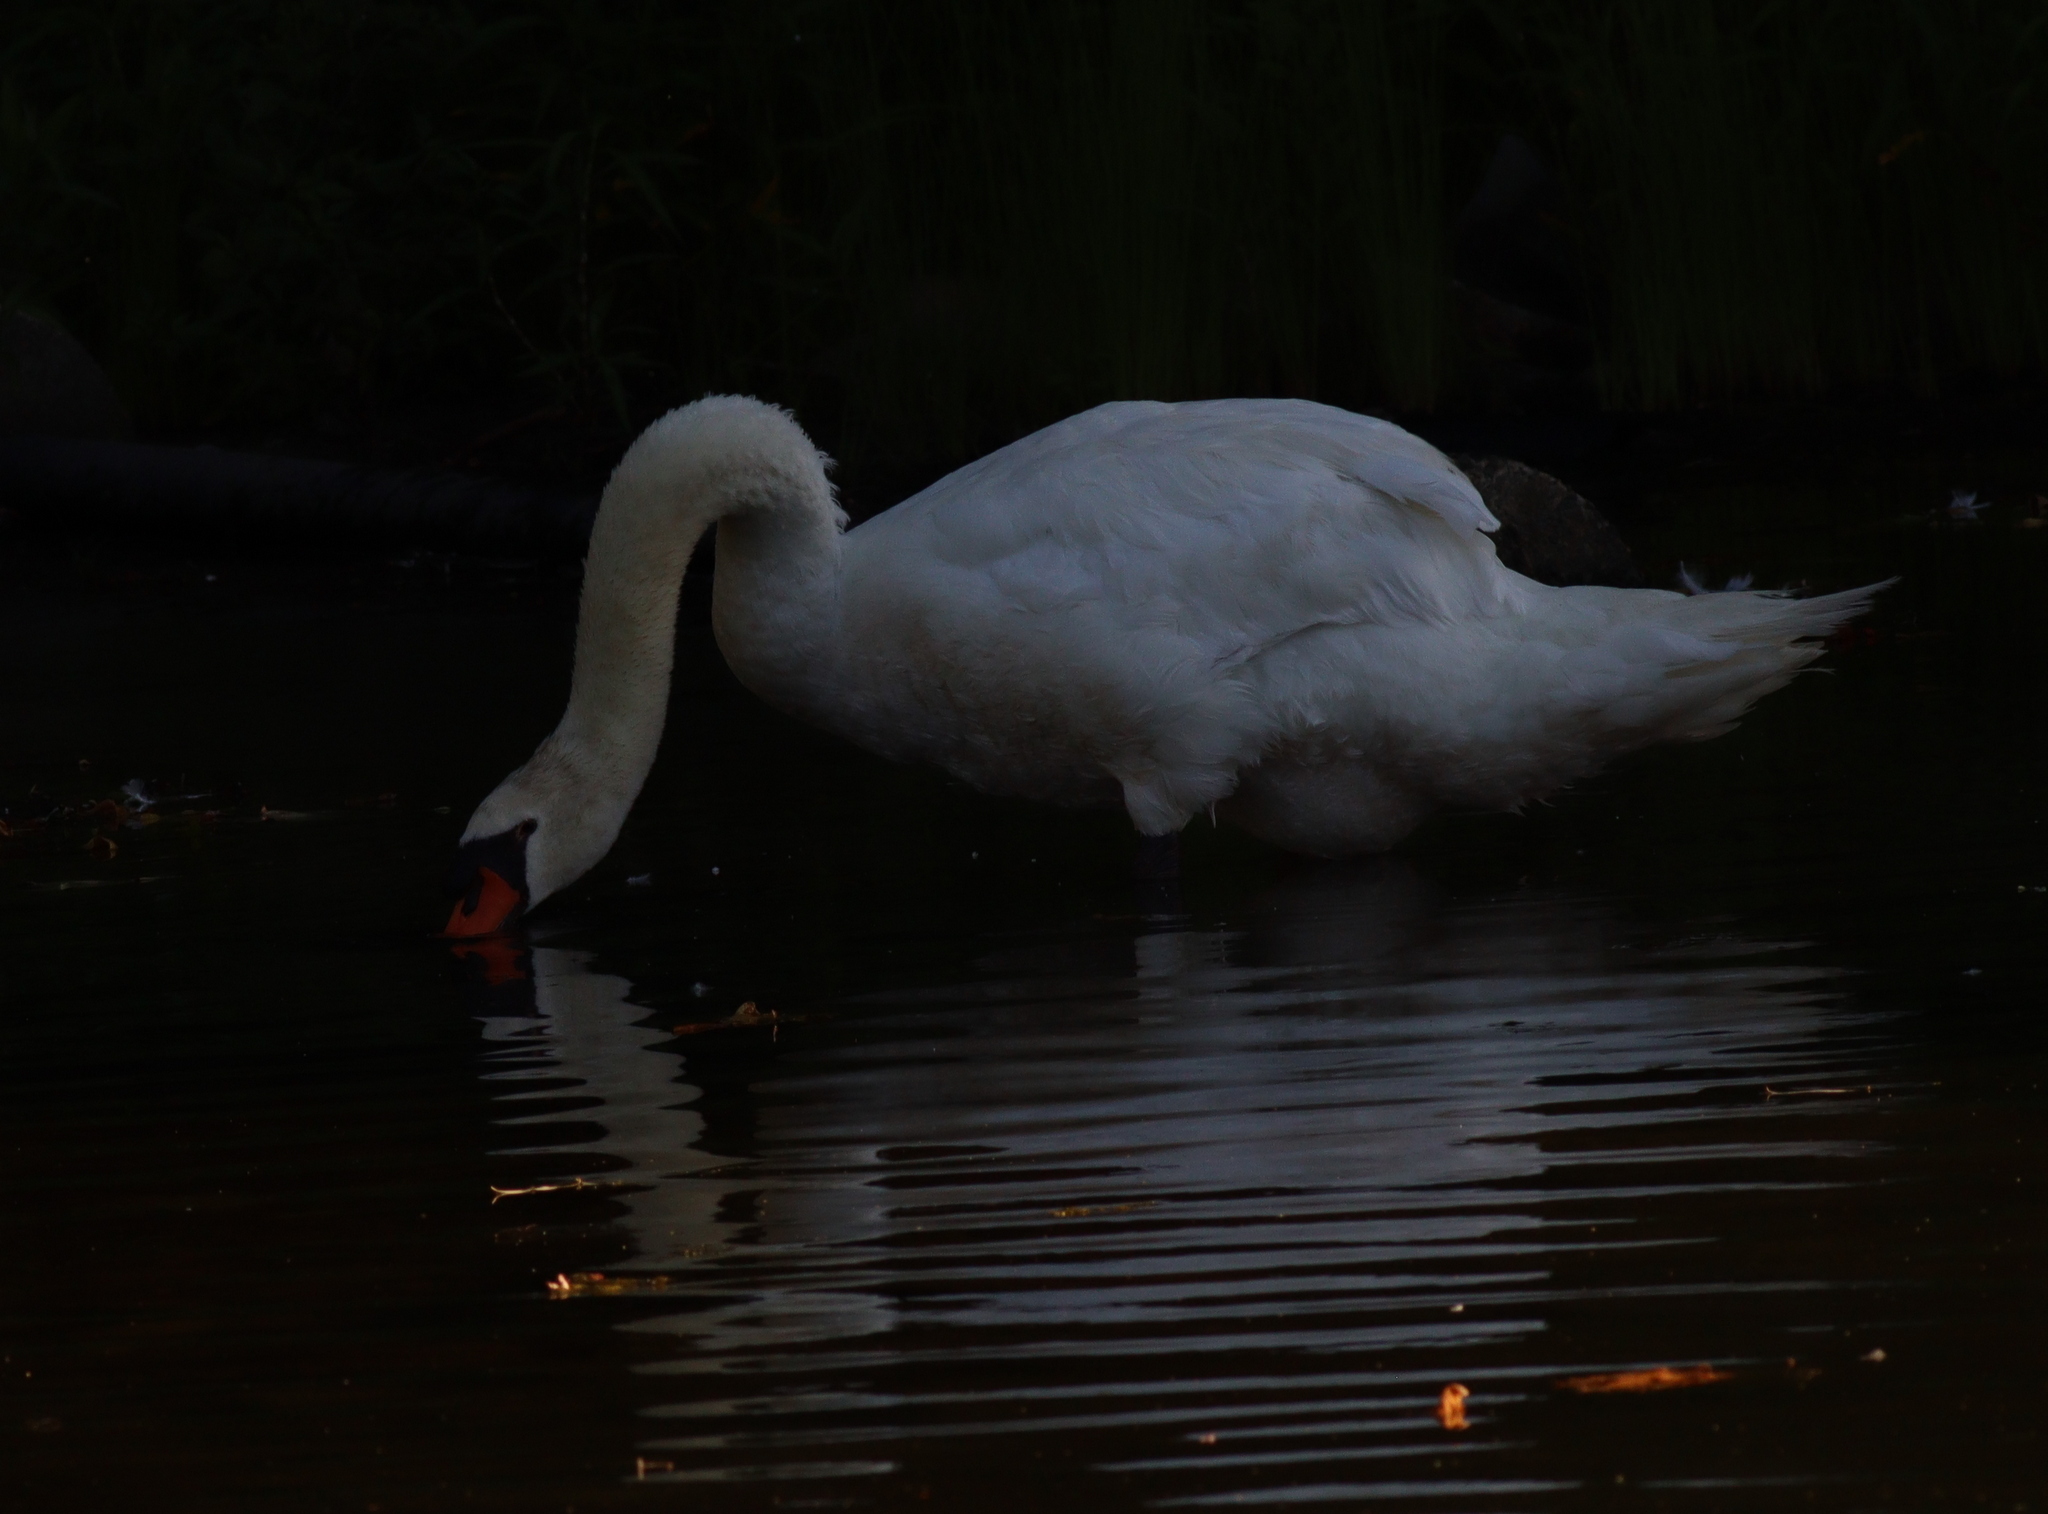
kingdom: Animalia
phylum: Chordata
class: Aves
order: Anseriformes
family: Anatidae
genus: Cygnus
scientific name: Cygnus olor
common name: Mute swan
